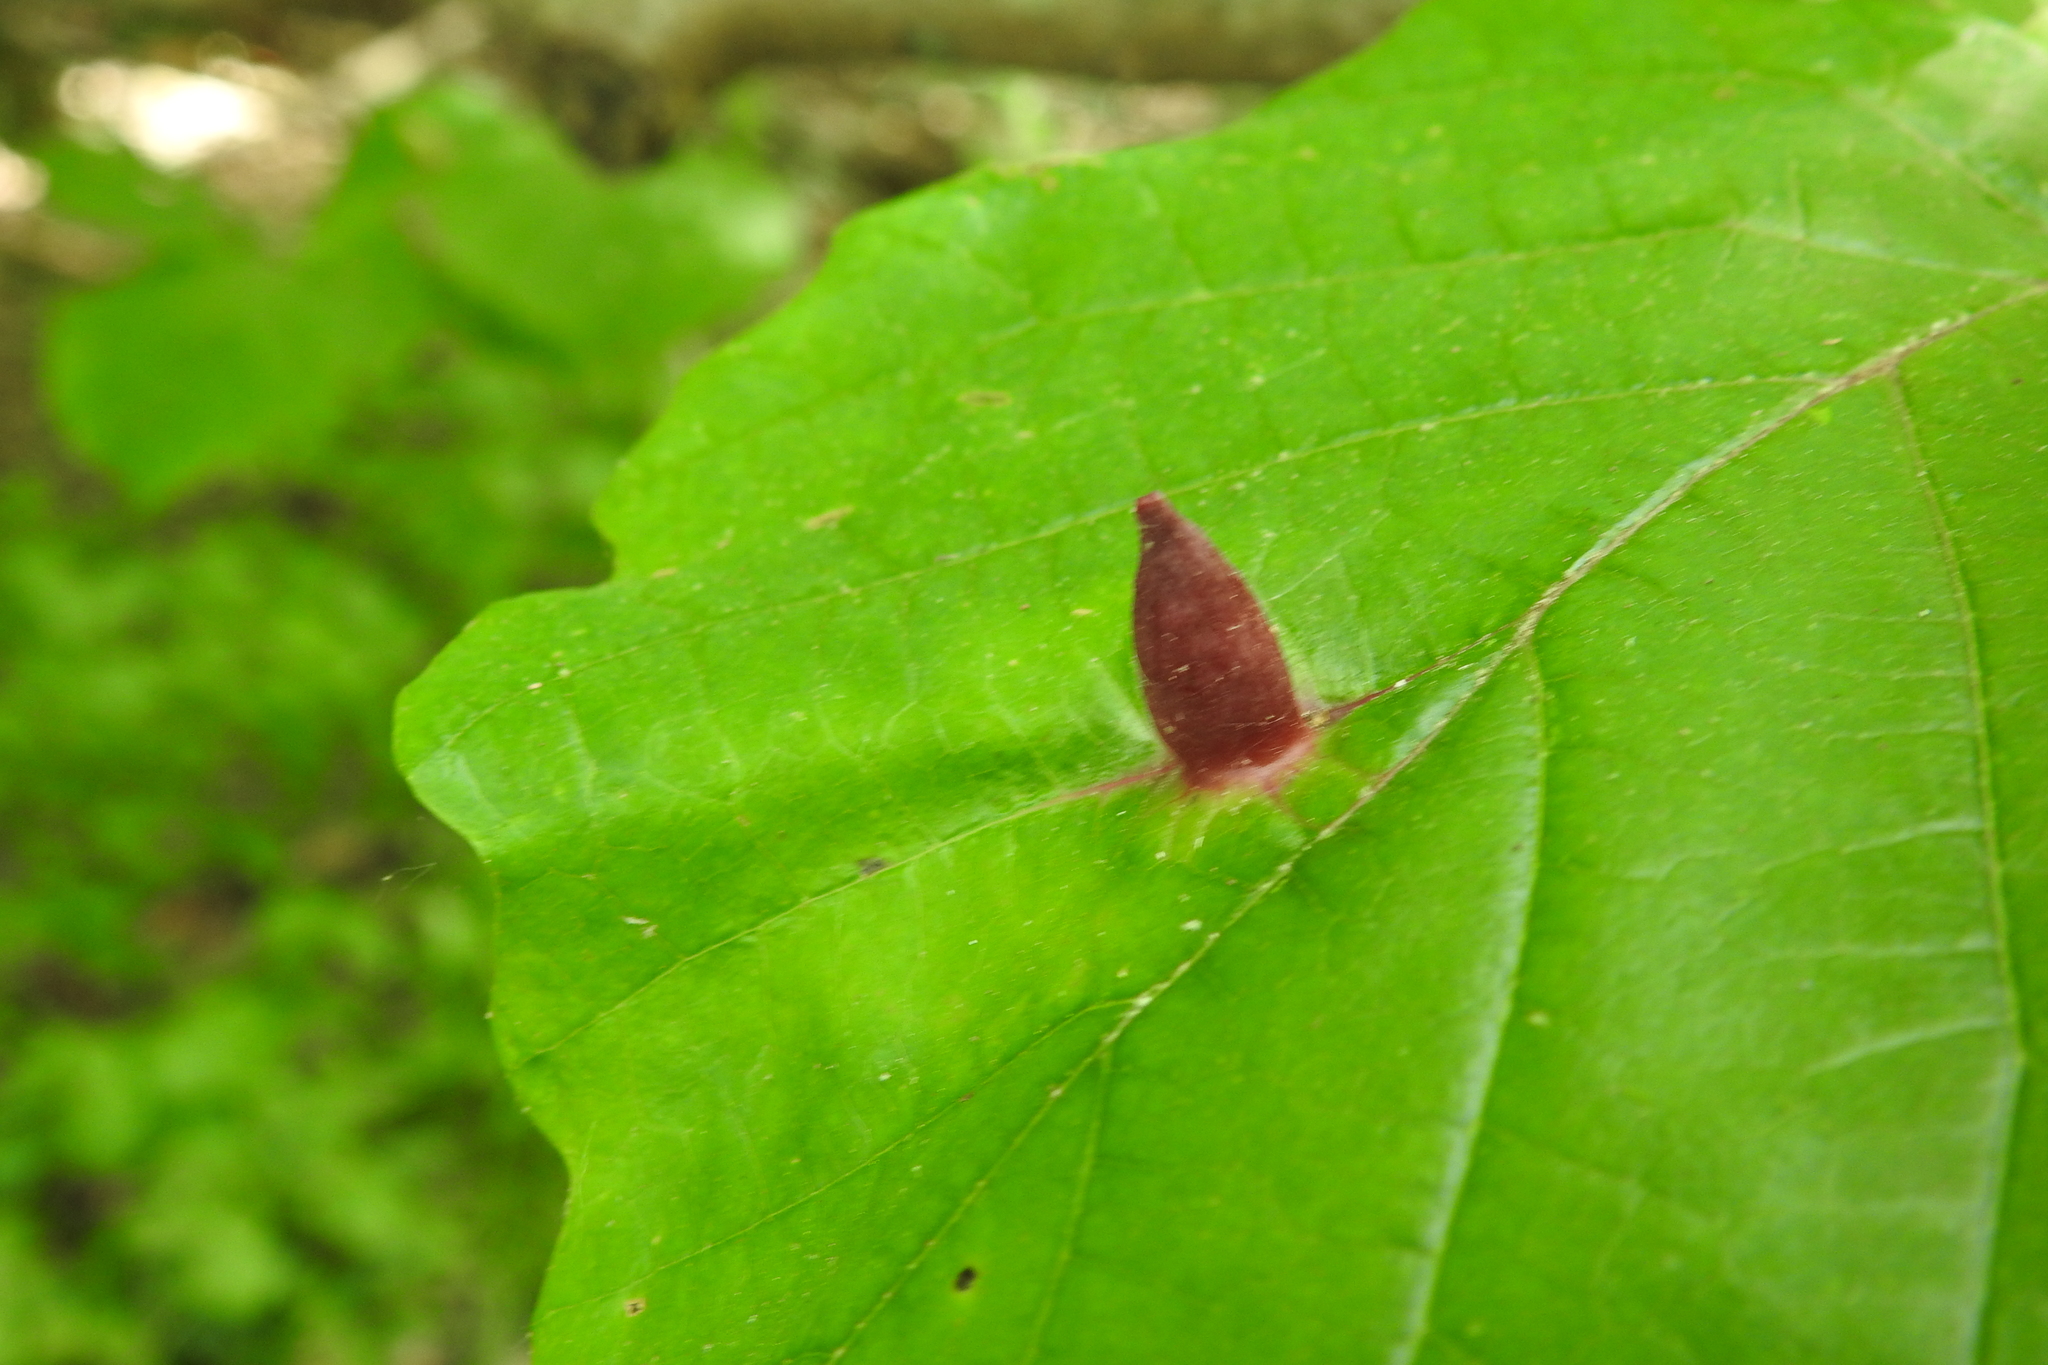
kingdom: Animalia
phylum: Arthropoda
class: Insecta
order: Hemiptera
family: Aphididae
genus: Hormaphis
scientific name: Hormaphis hamamelidis
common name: Witch-hazel cone gall aphid
